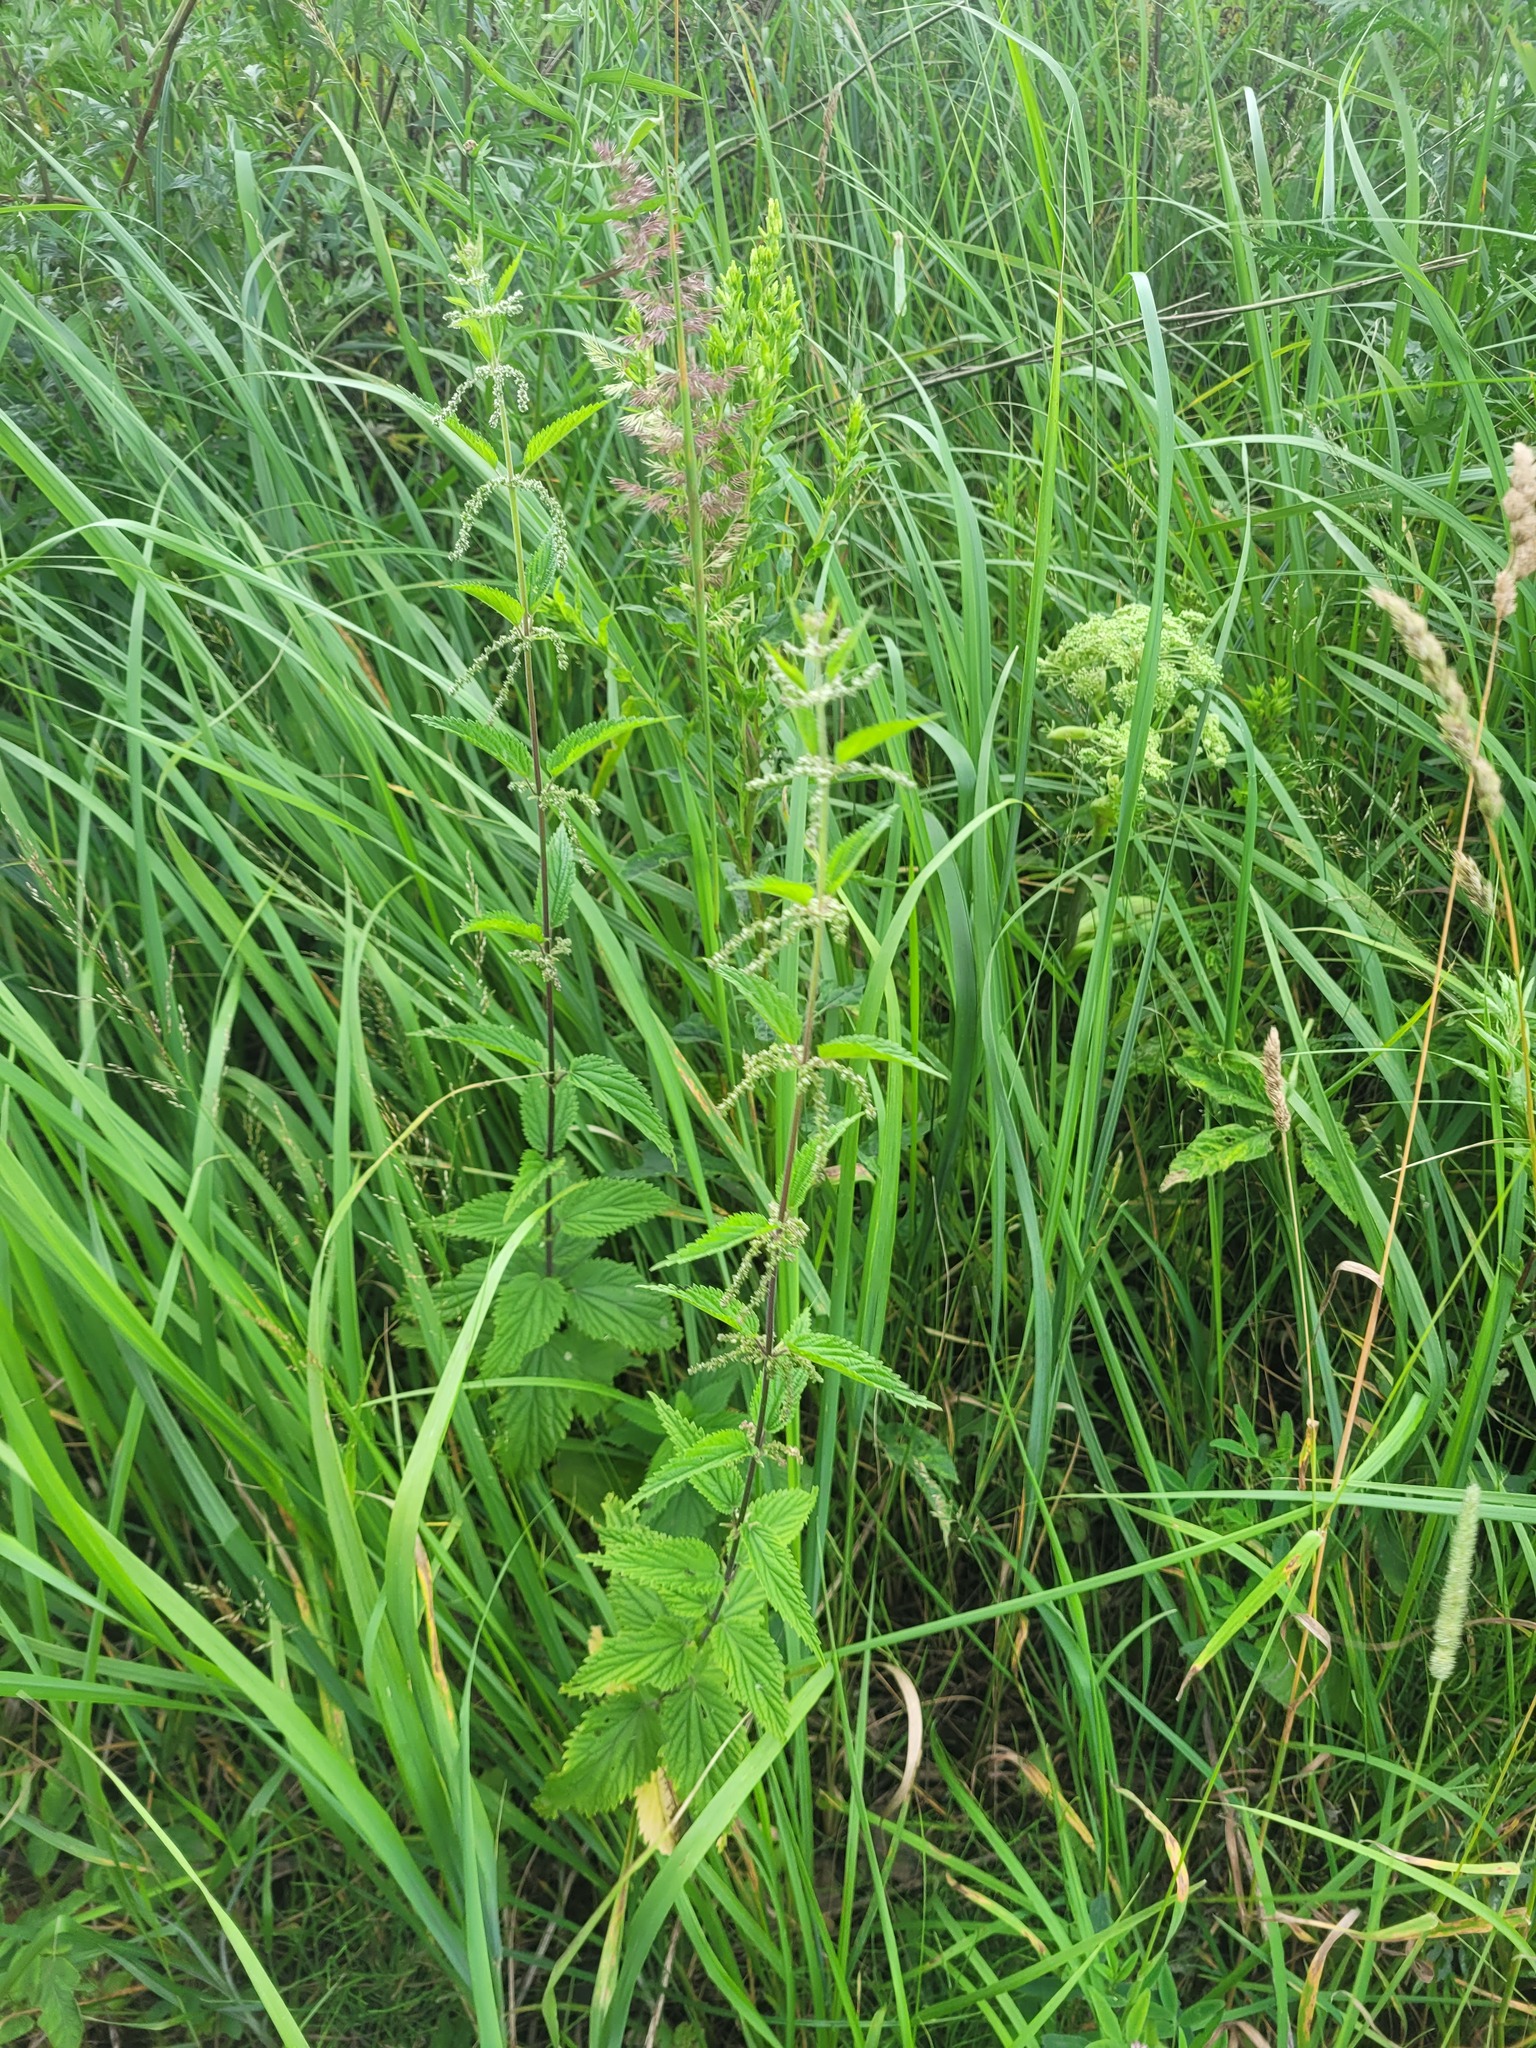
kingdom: Plantae
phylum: Tracheophyta
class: Magnoliopsida
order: Rosales
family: Urticaceae
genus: Urtica
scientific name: Urtica dioica
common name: Common nettle
